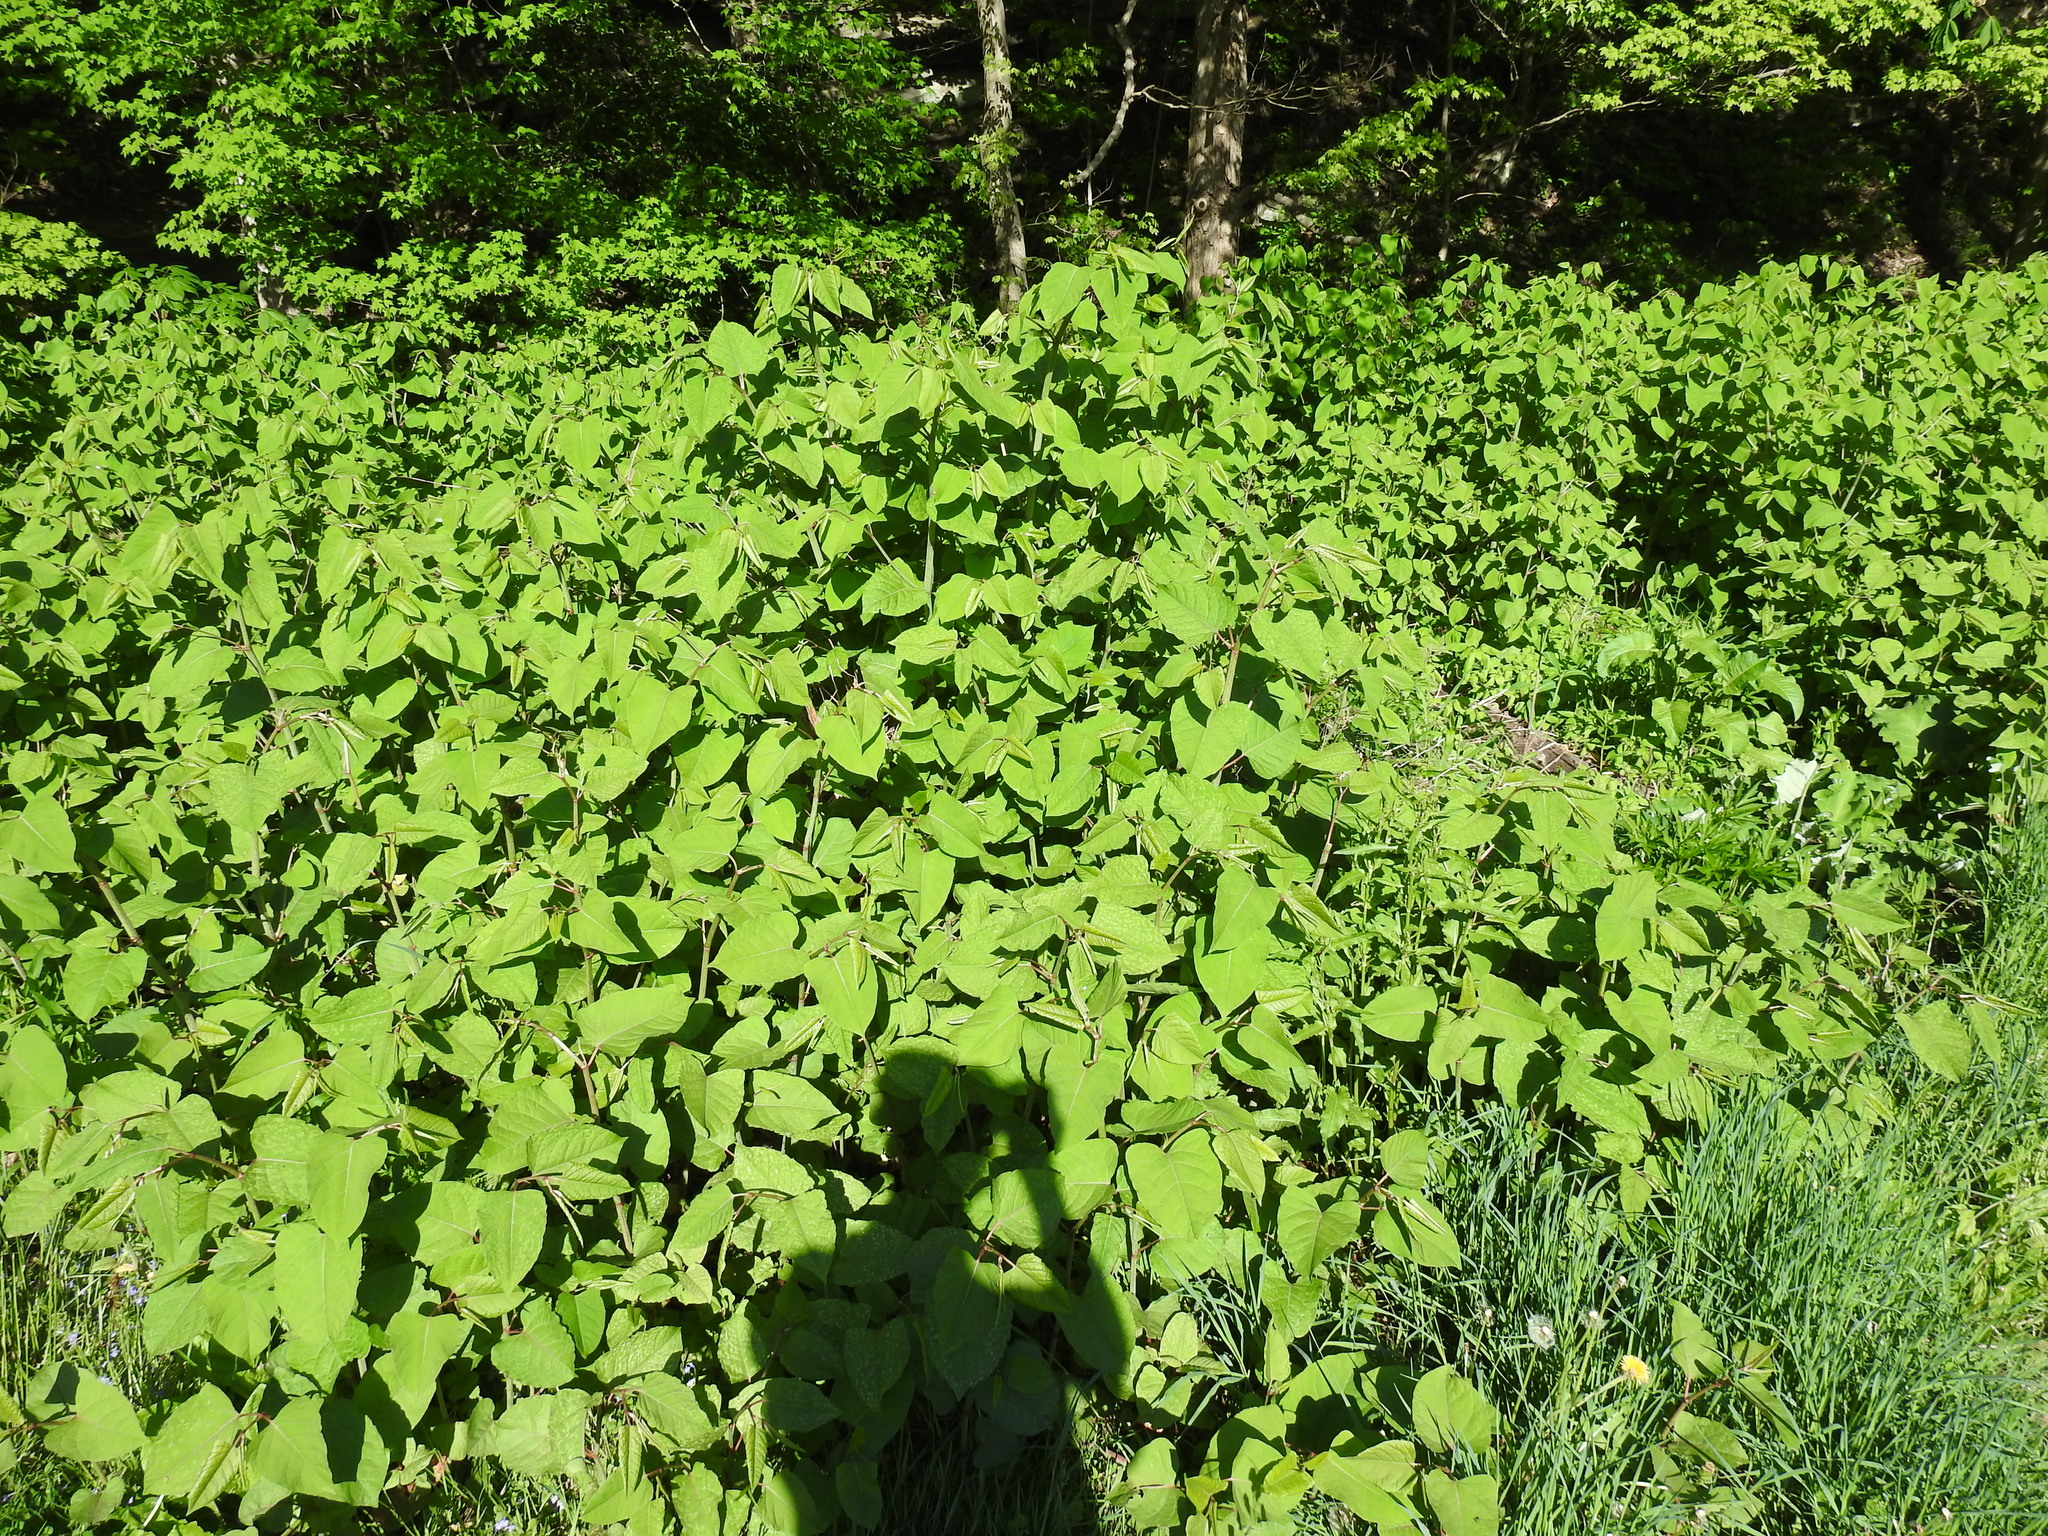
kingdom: Plantae
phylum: Tracheophyta
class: Magnoliopsida
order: Caryophyllales
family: Polygonaceae
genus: Reynoutria
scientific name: Reynoutria japonica
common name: Japanese knotweed
